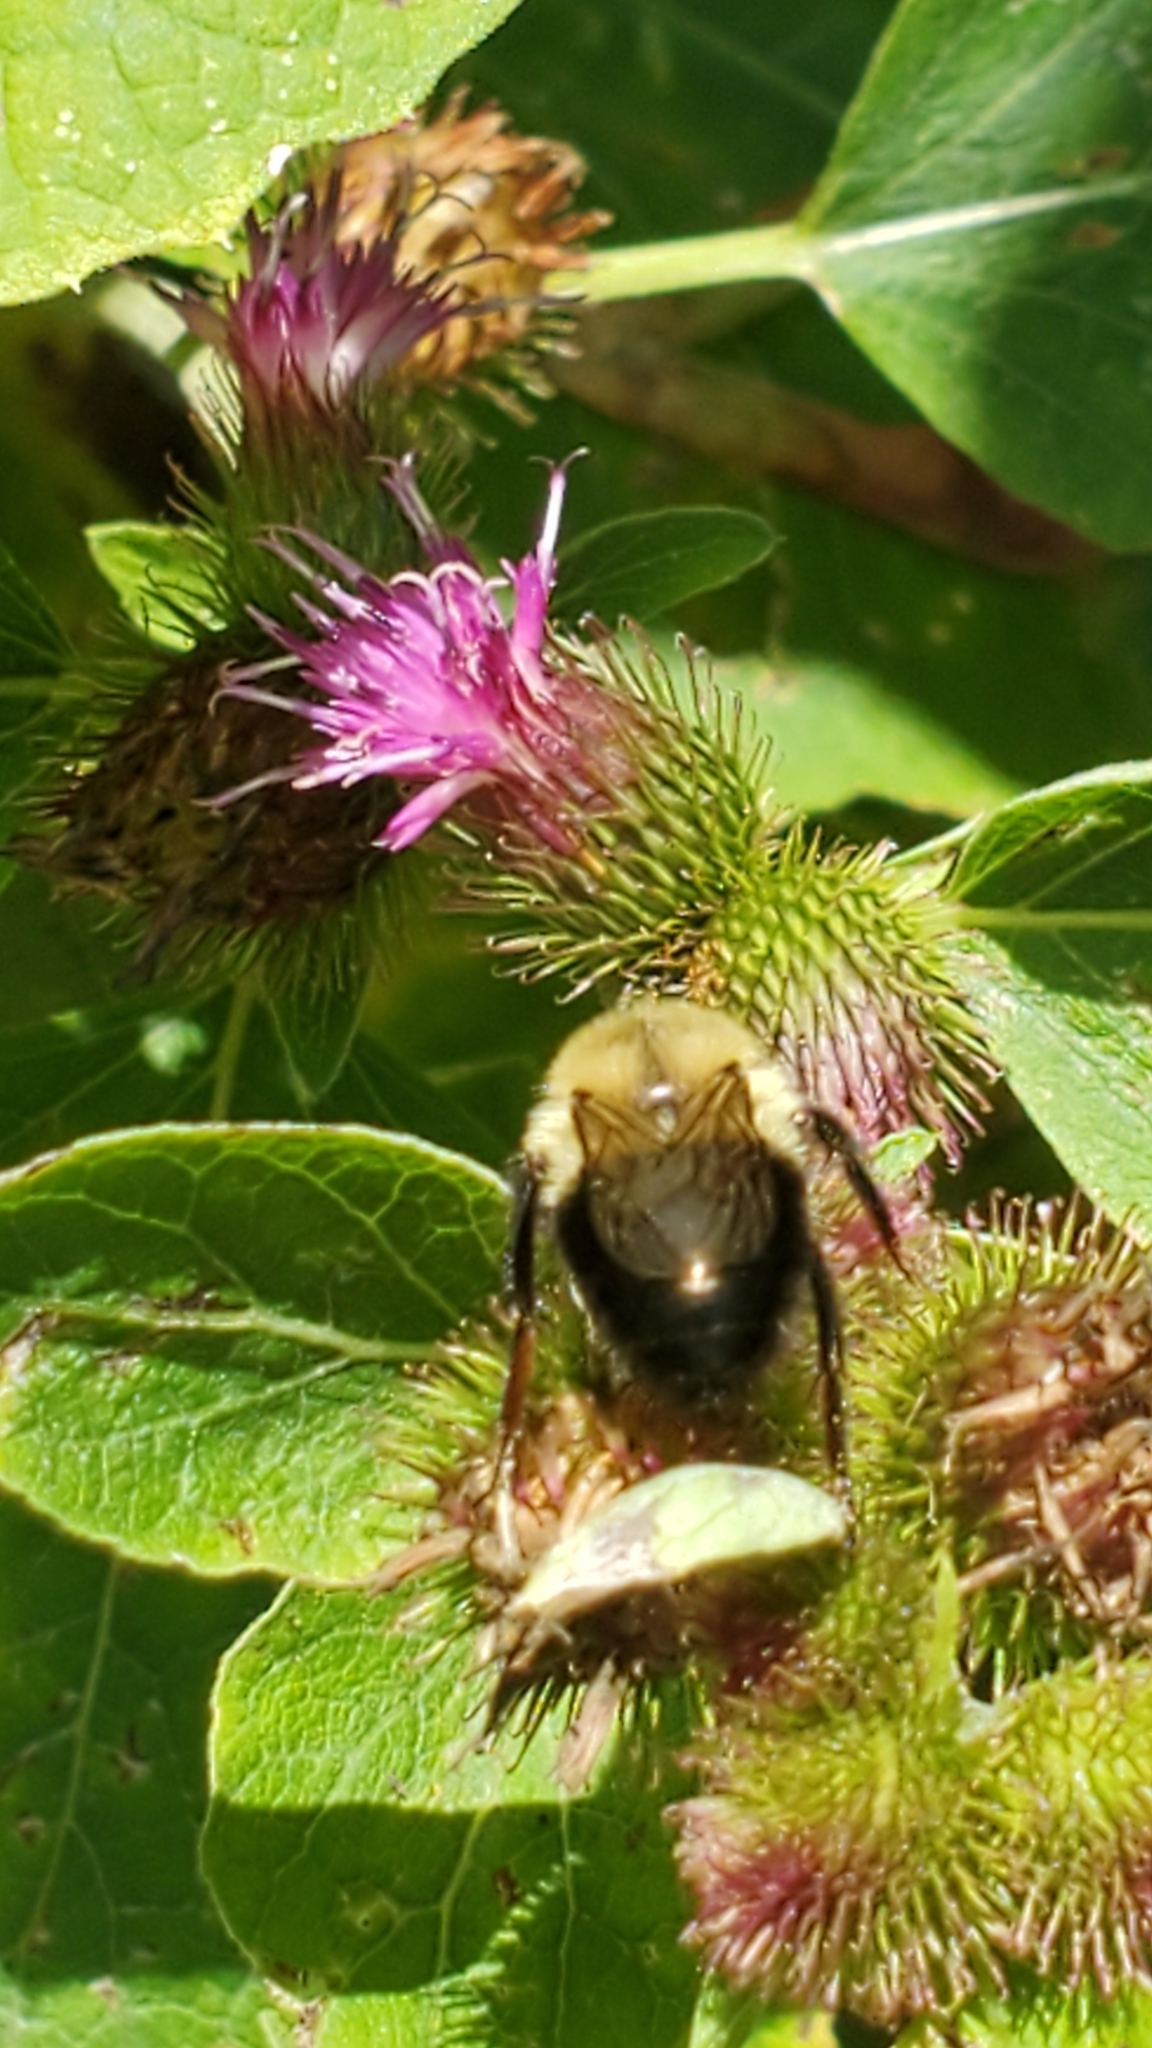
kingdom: Animalia
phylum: Arthropoda
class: Insecta
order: Hymenoptera
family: Apidae
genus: Bombus
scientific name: Bombus impatiens
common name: Common eastern bumble bee
